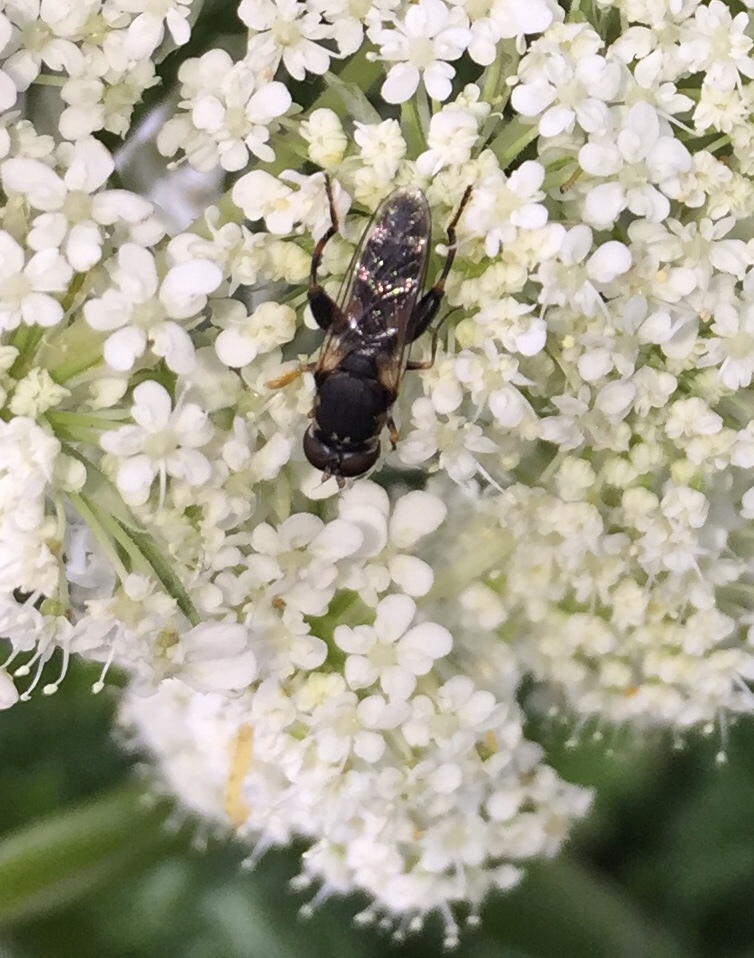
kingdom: Animalia
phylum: Arthropoda
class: Insecta
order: Diptera
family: Syrphidae
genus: Syritta
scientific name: Syritta pipiens
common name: Hover fly
